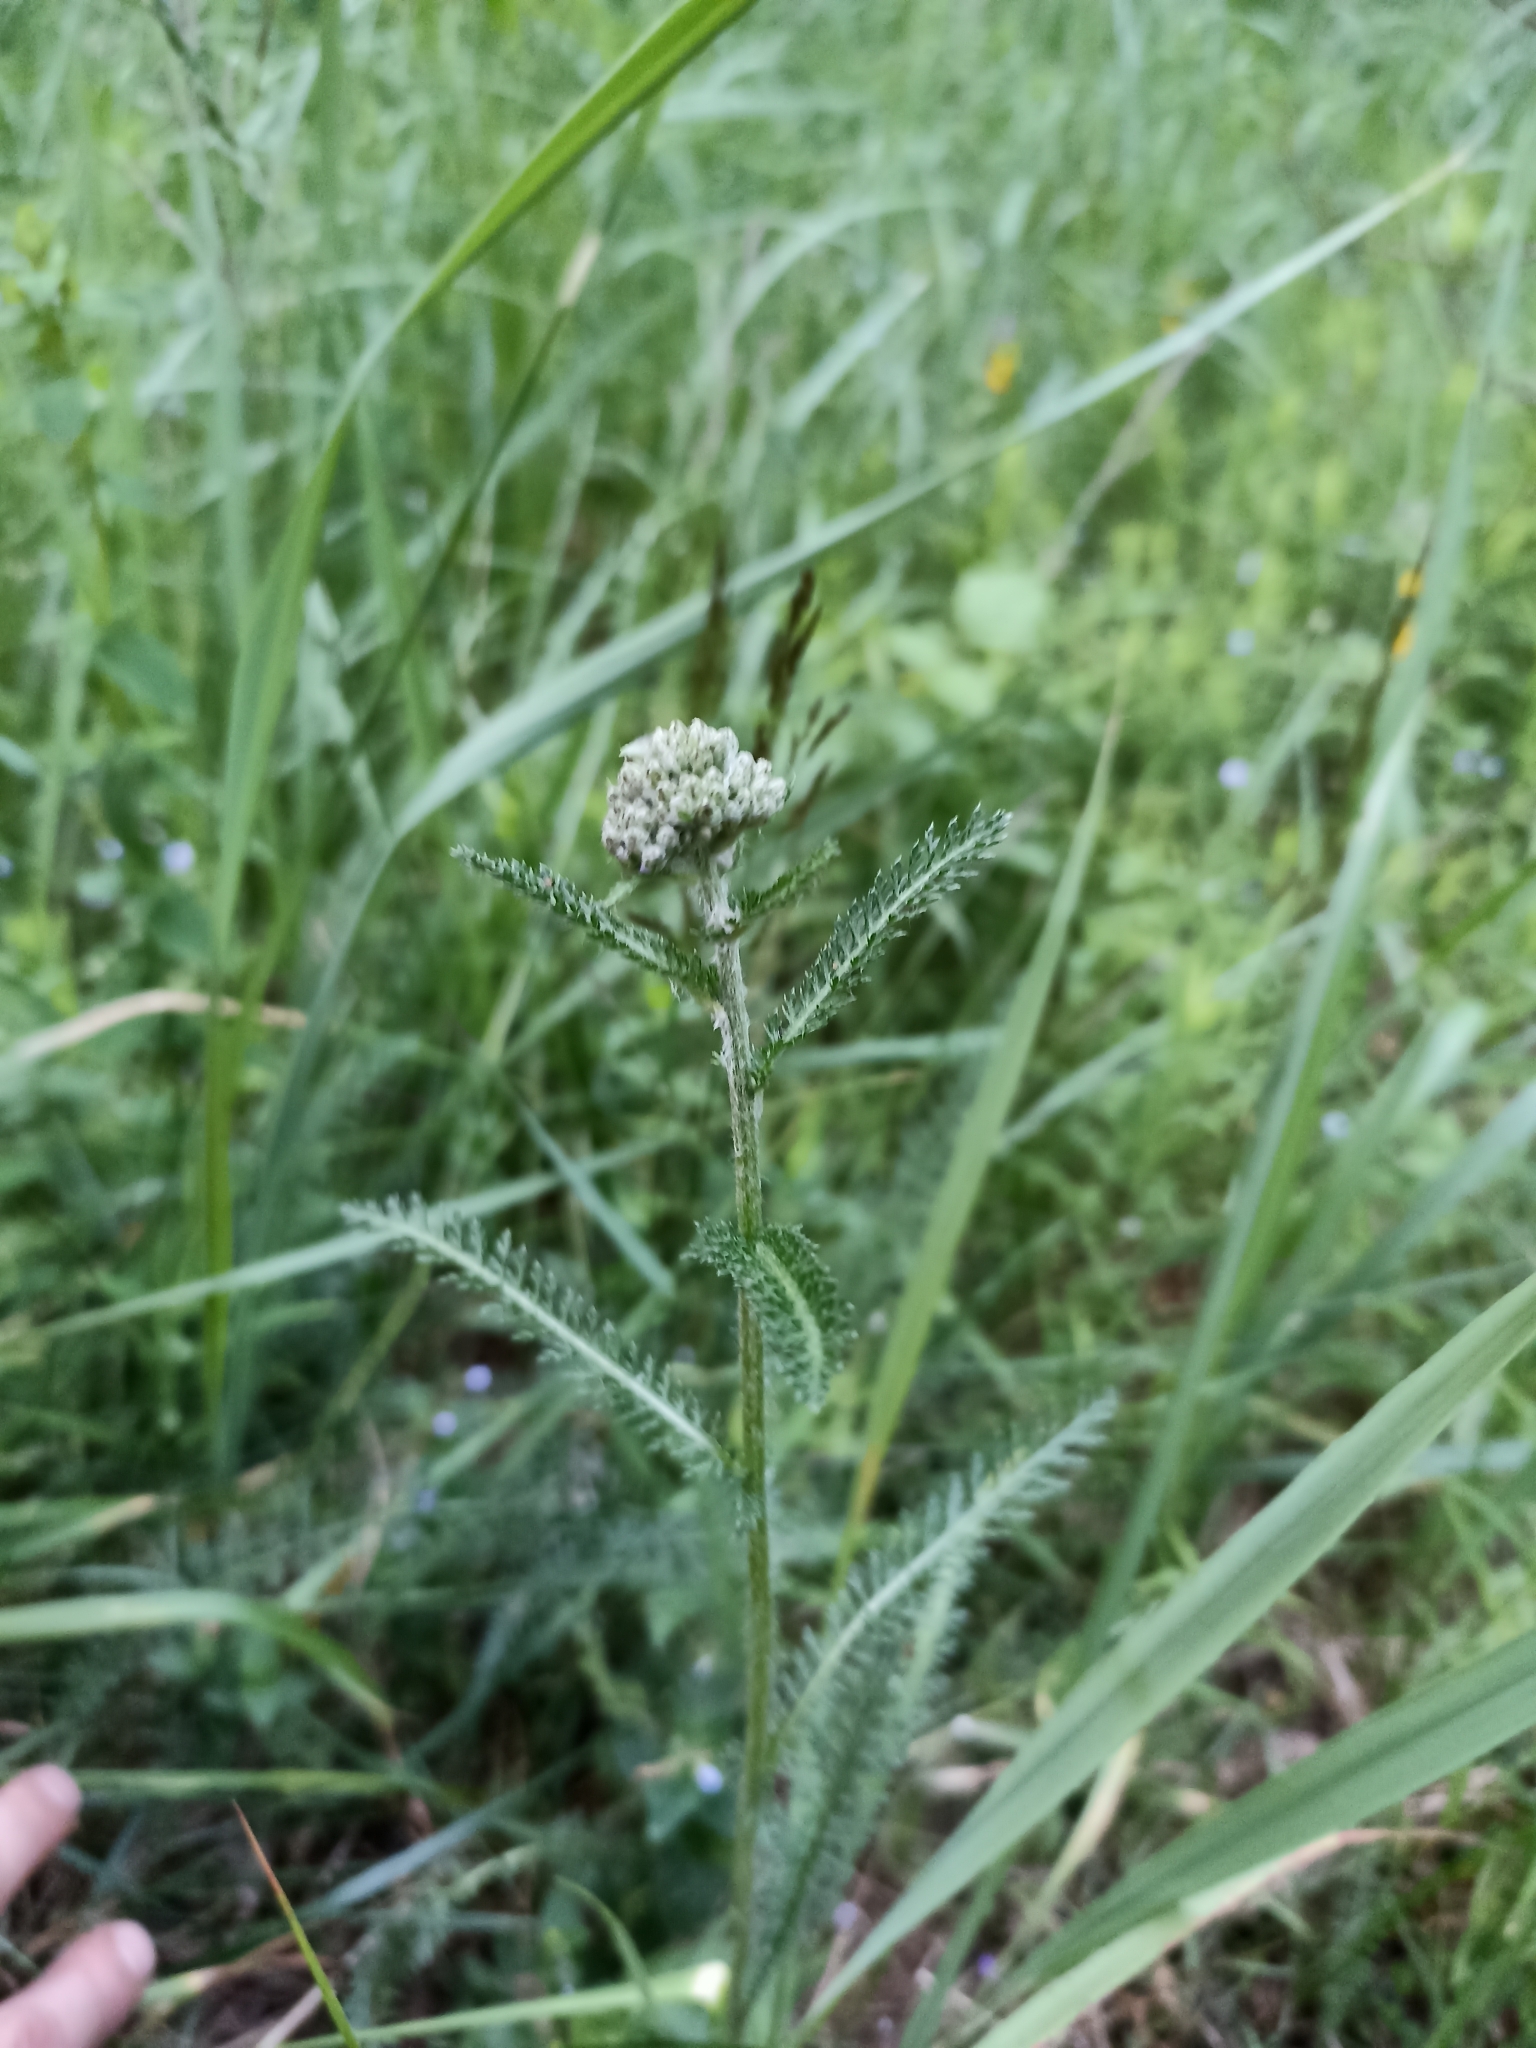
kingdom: Plantae
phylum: Tracheophyta
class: Magnoliopsida
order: Asterales
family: Asteraceae
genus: Achillea
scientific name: Achillea millefolium
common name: Yarrow
